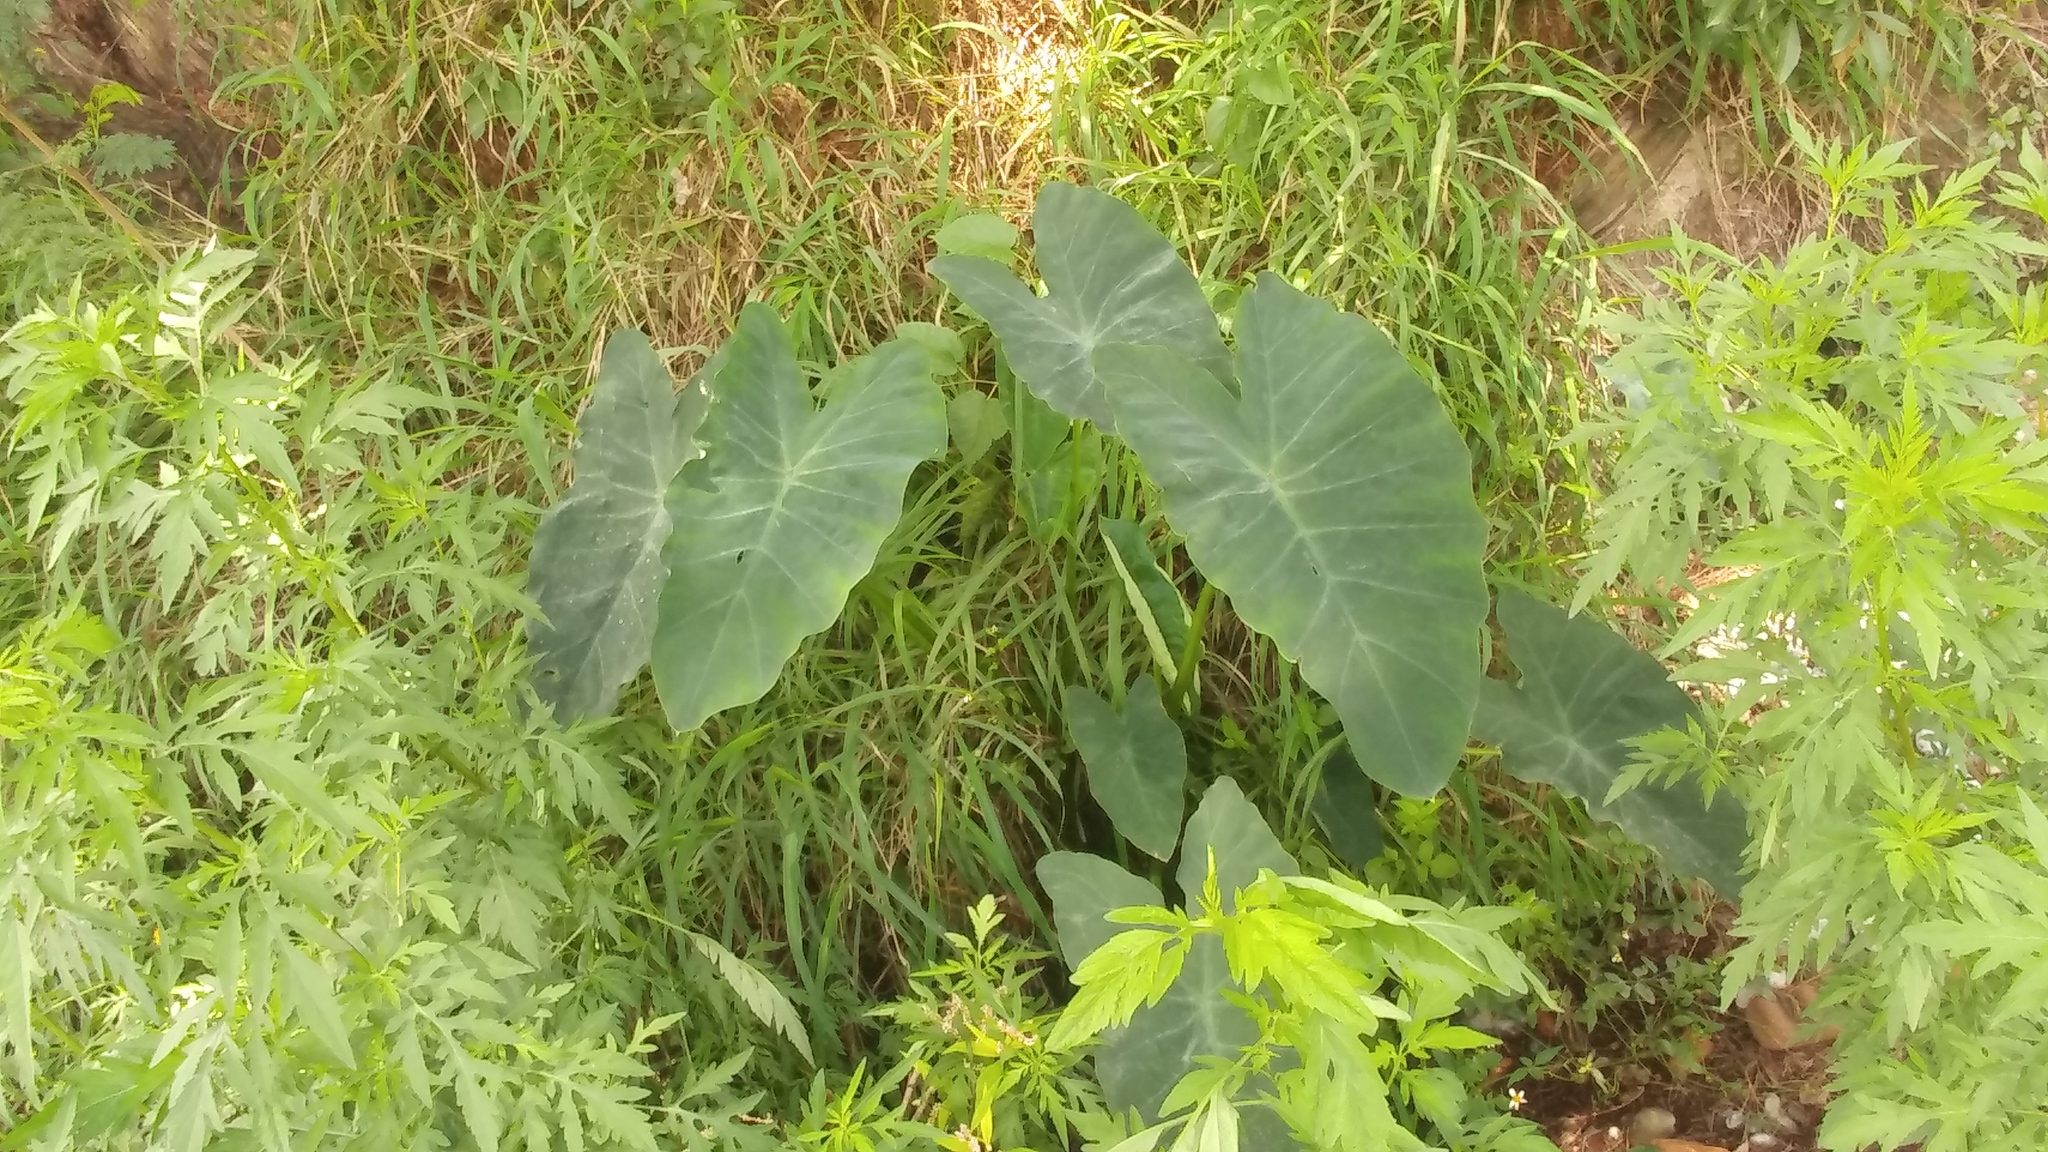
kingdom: Plantae
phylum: Tracheophyta
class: Liliopsida
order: Alismatales
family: Araceae
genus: Colocasia
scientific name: Colocasia esculenta
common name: Taro
